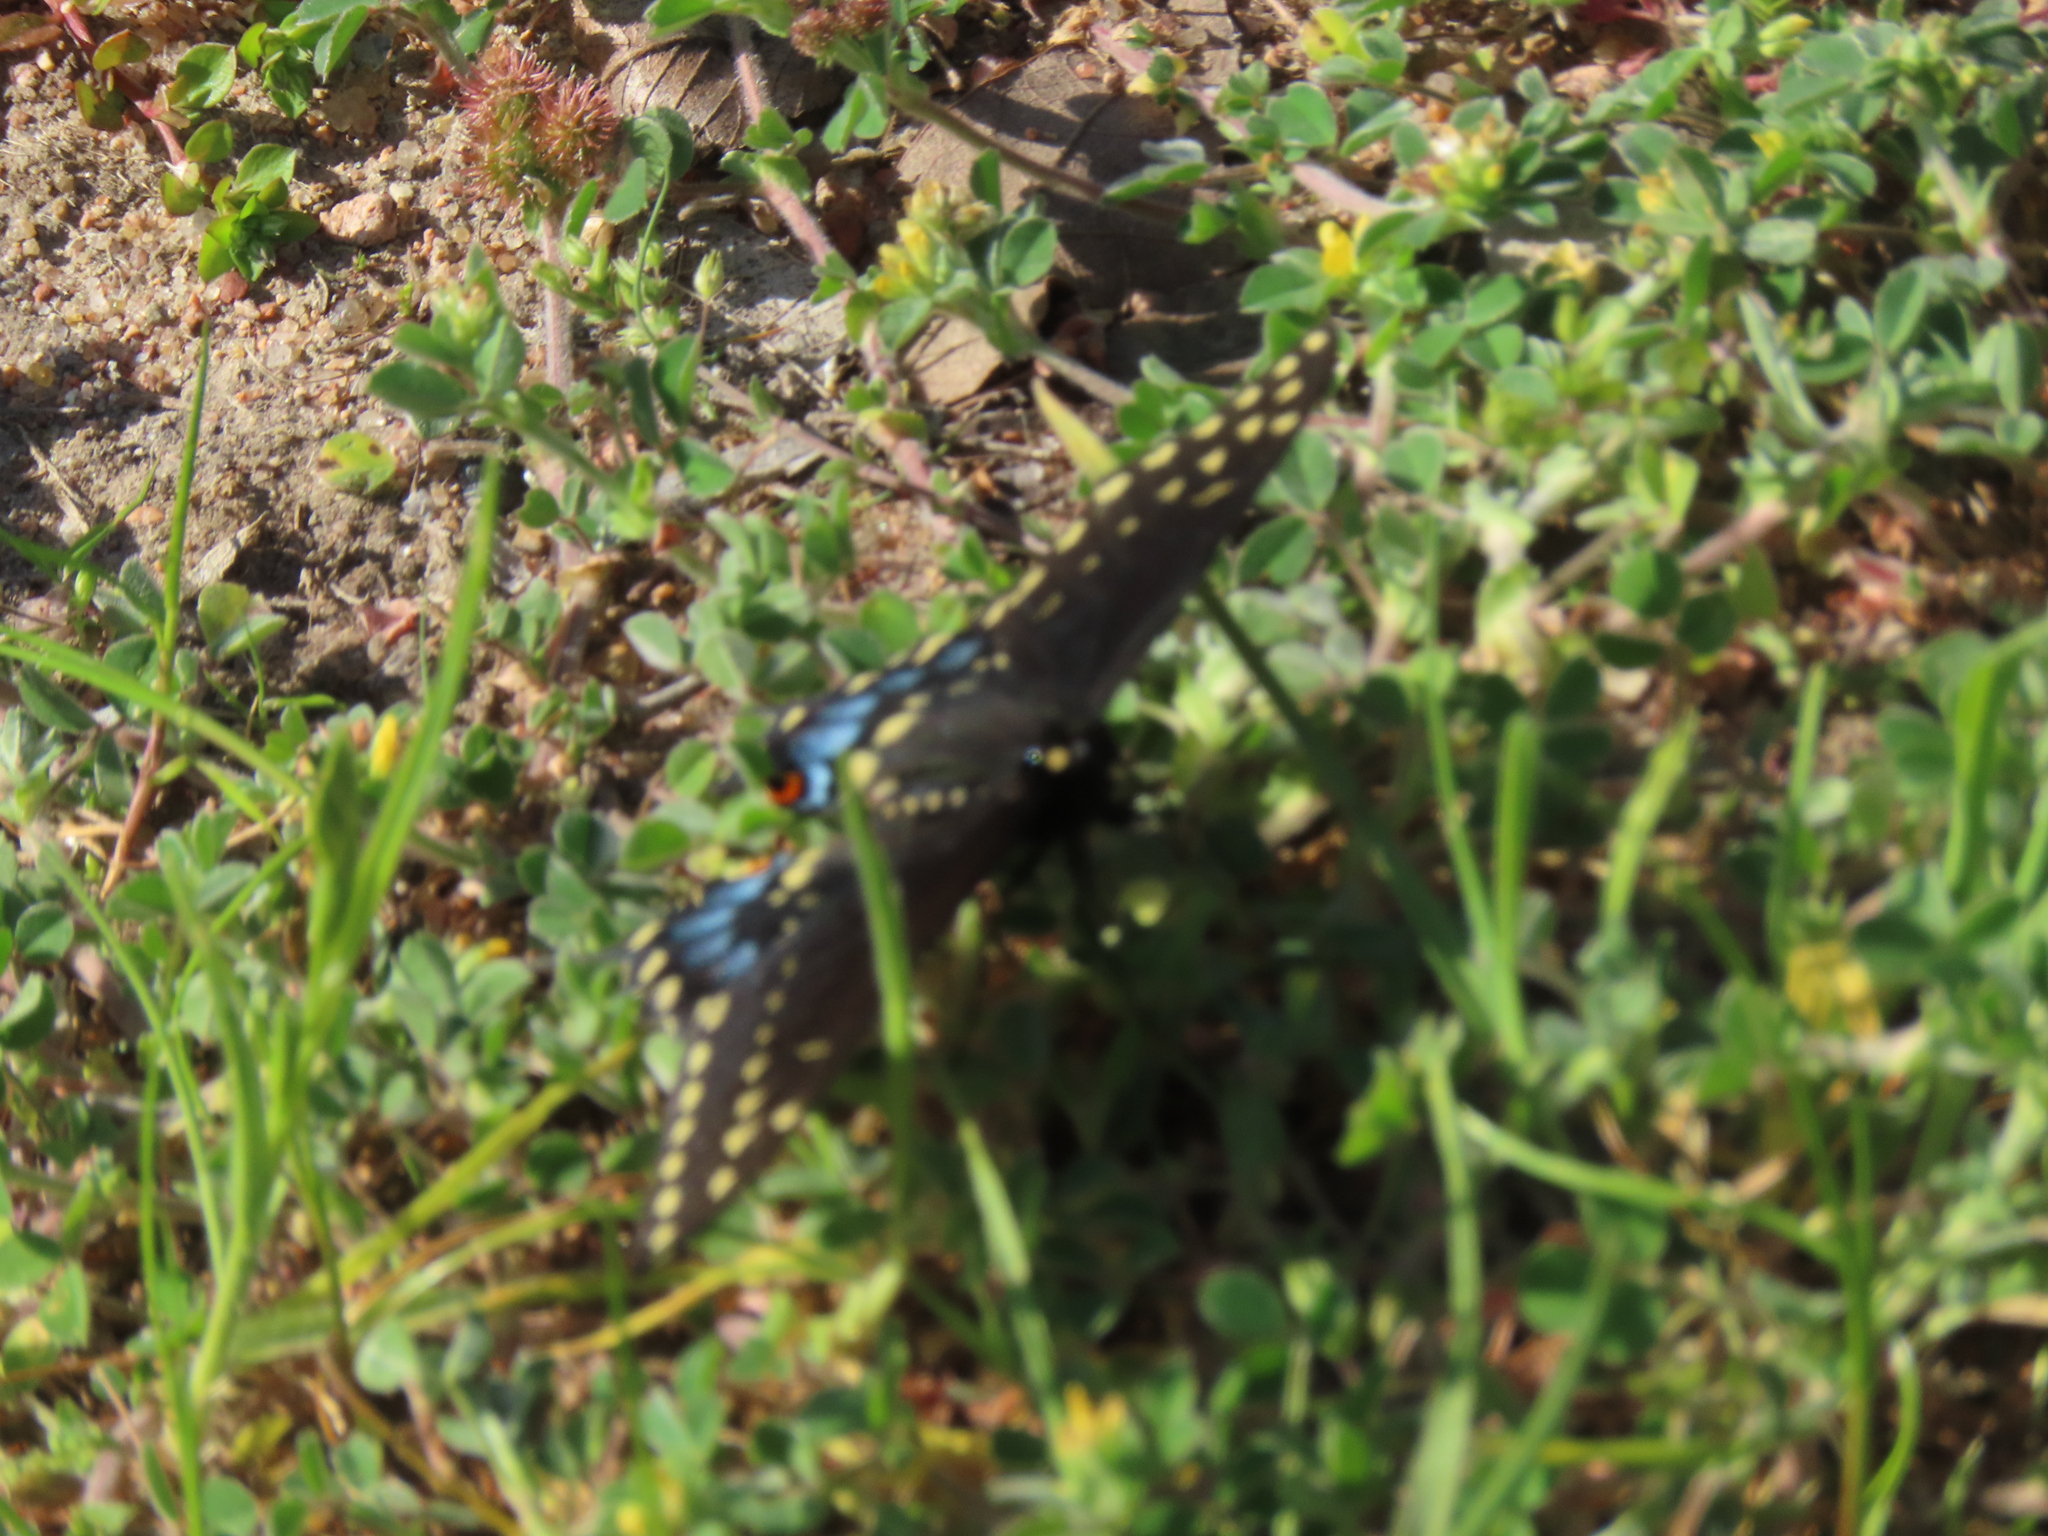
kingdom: Animalia
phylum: Arthropoda
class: Insecta
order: Lepidoptera
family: Papilionidae
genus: Papilio
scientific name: Papilio polyxenes
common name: Black swallowtail
